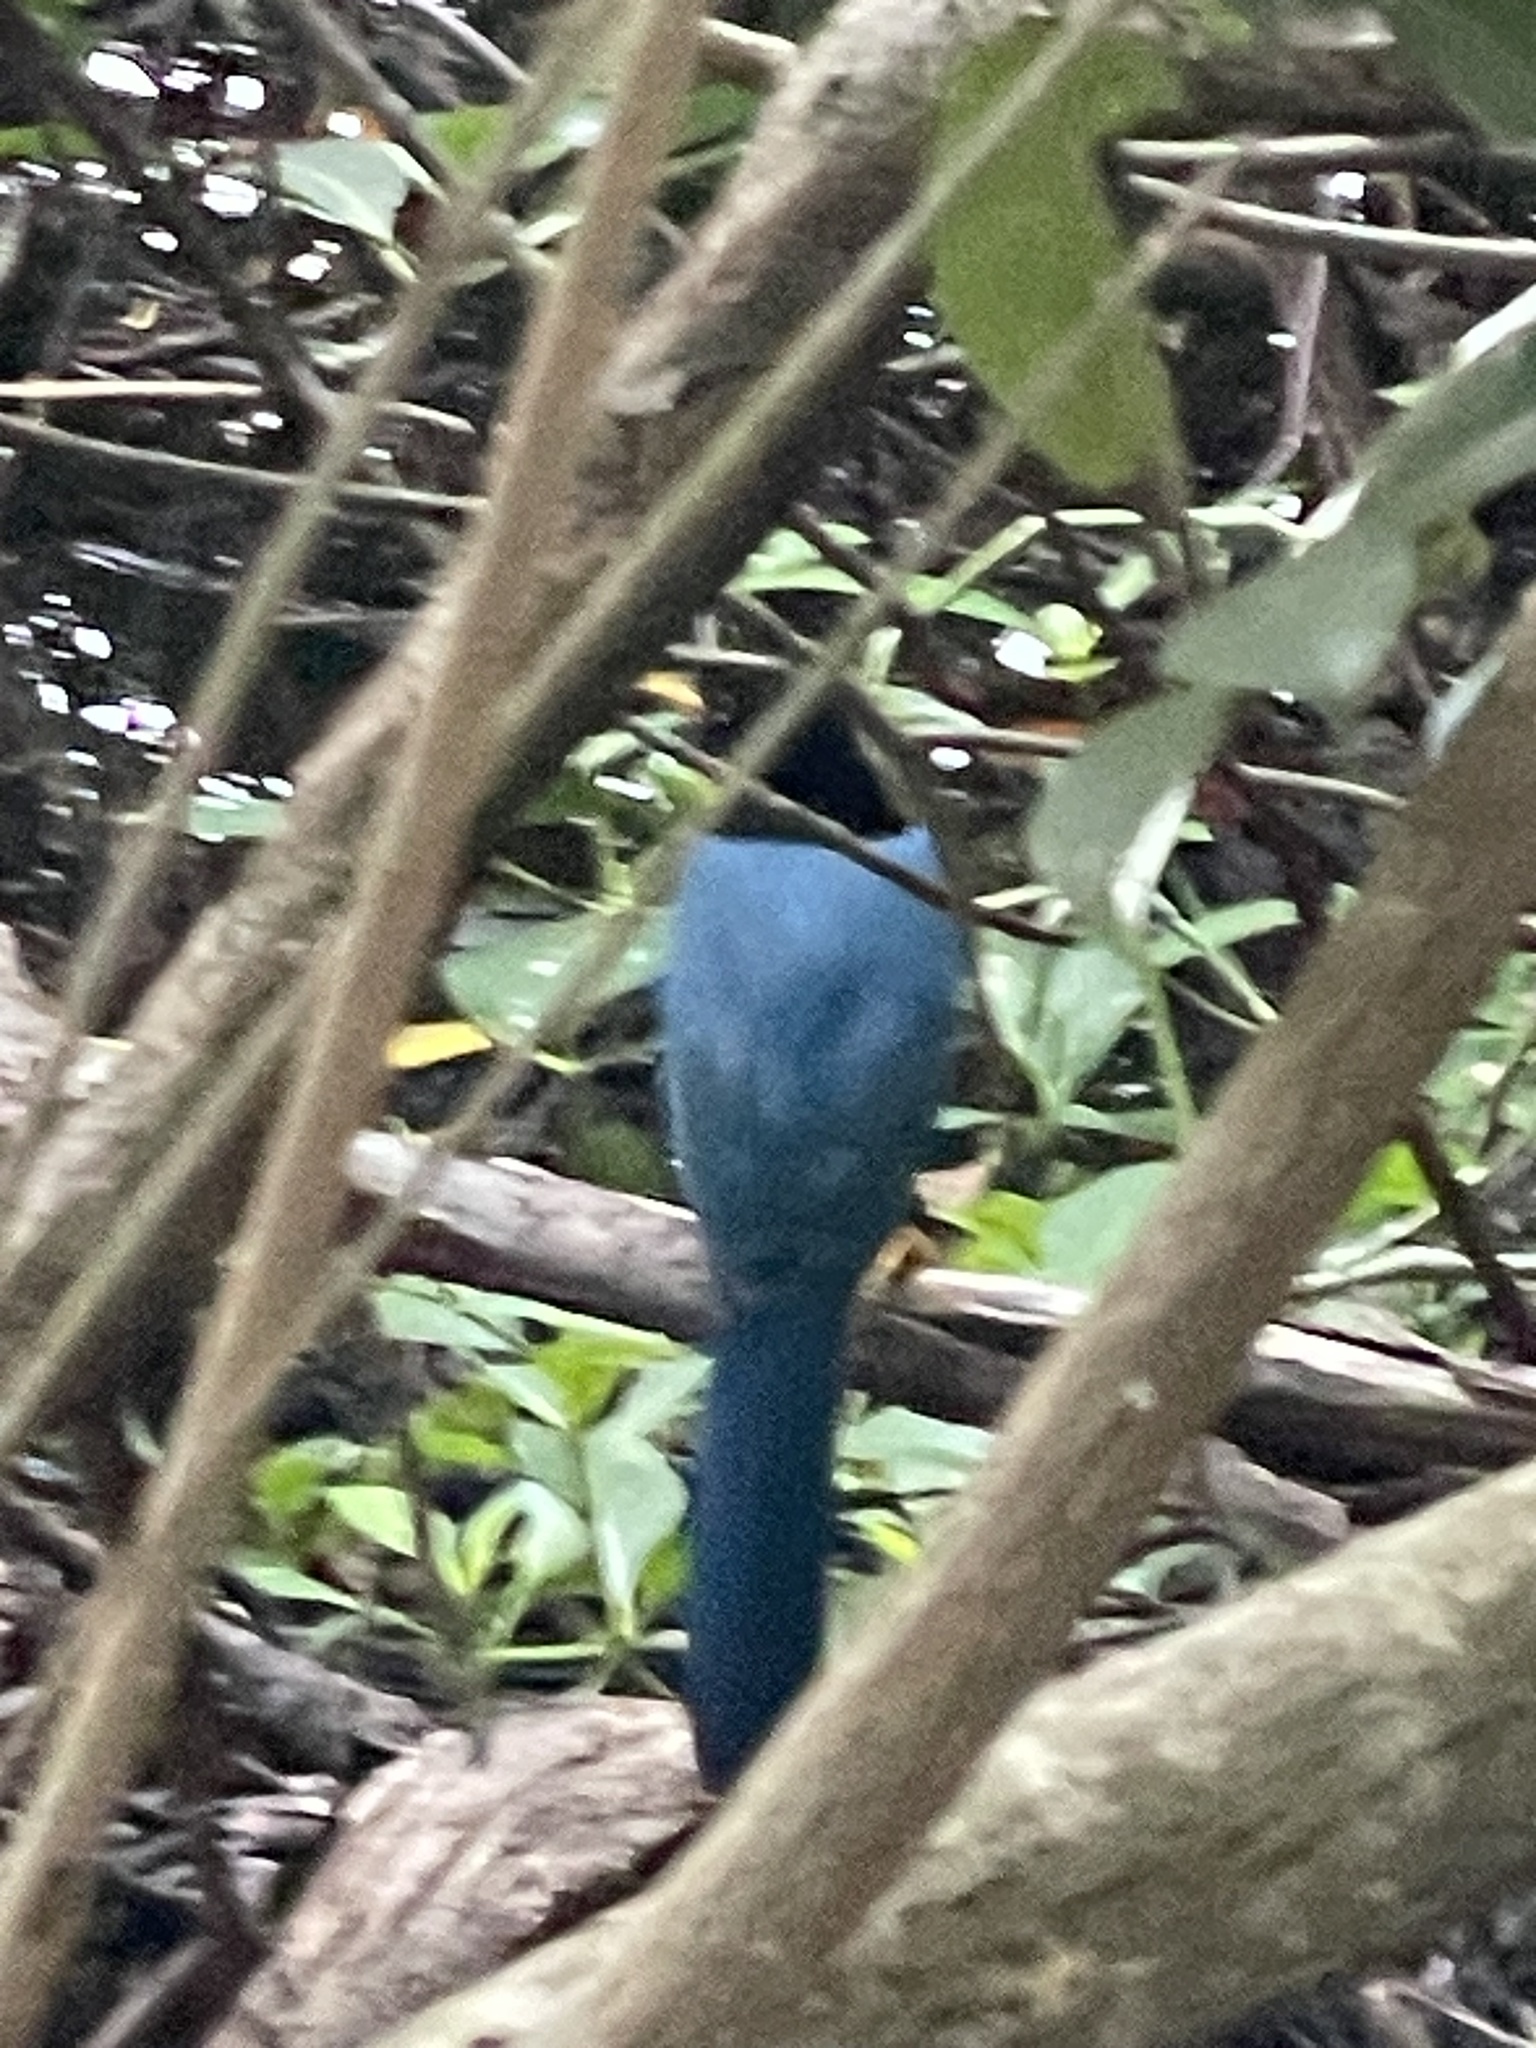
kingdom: Animalia
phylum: Chordata
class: Aves
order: Passeriformes
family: Corvidae
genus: Cyanocorax
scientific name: Cyanocorax yucatanicus
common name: Yucatan jay
